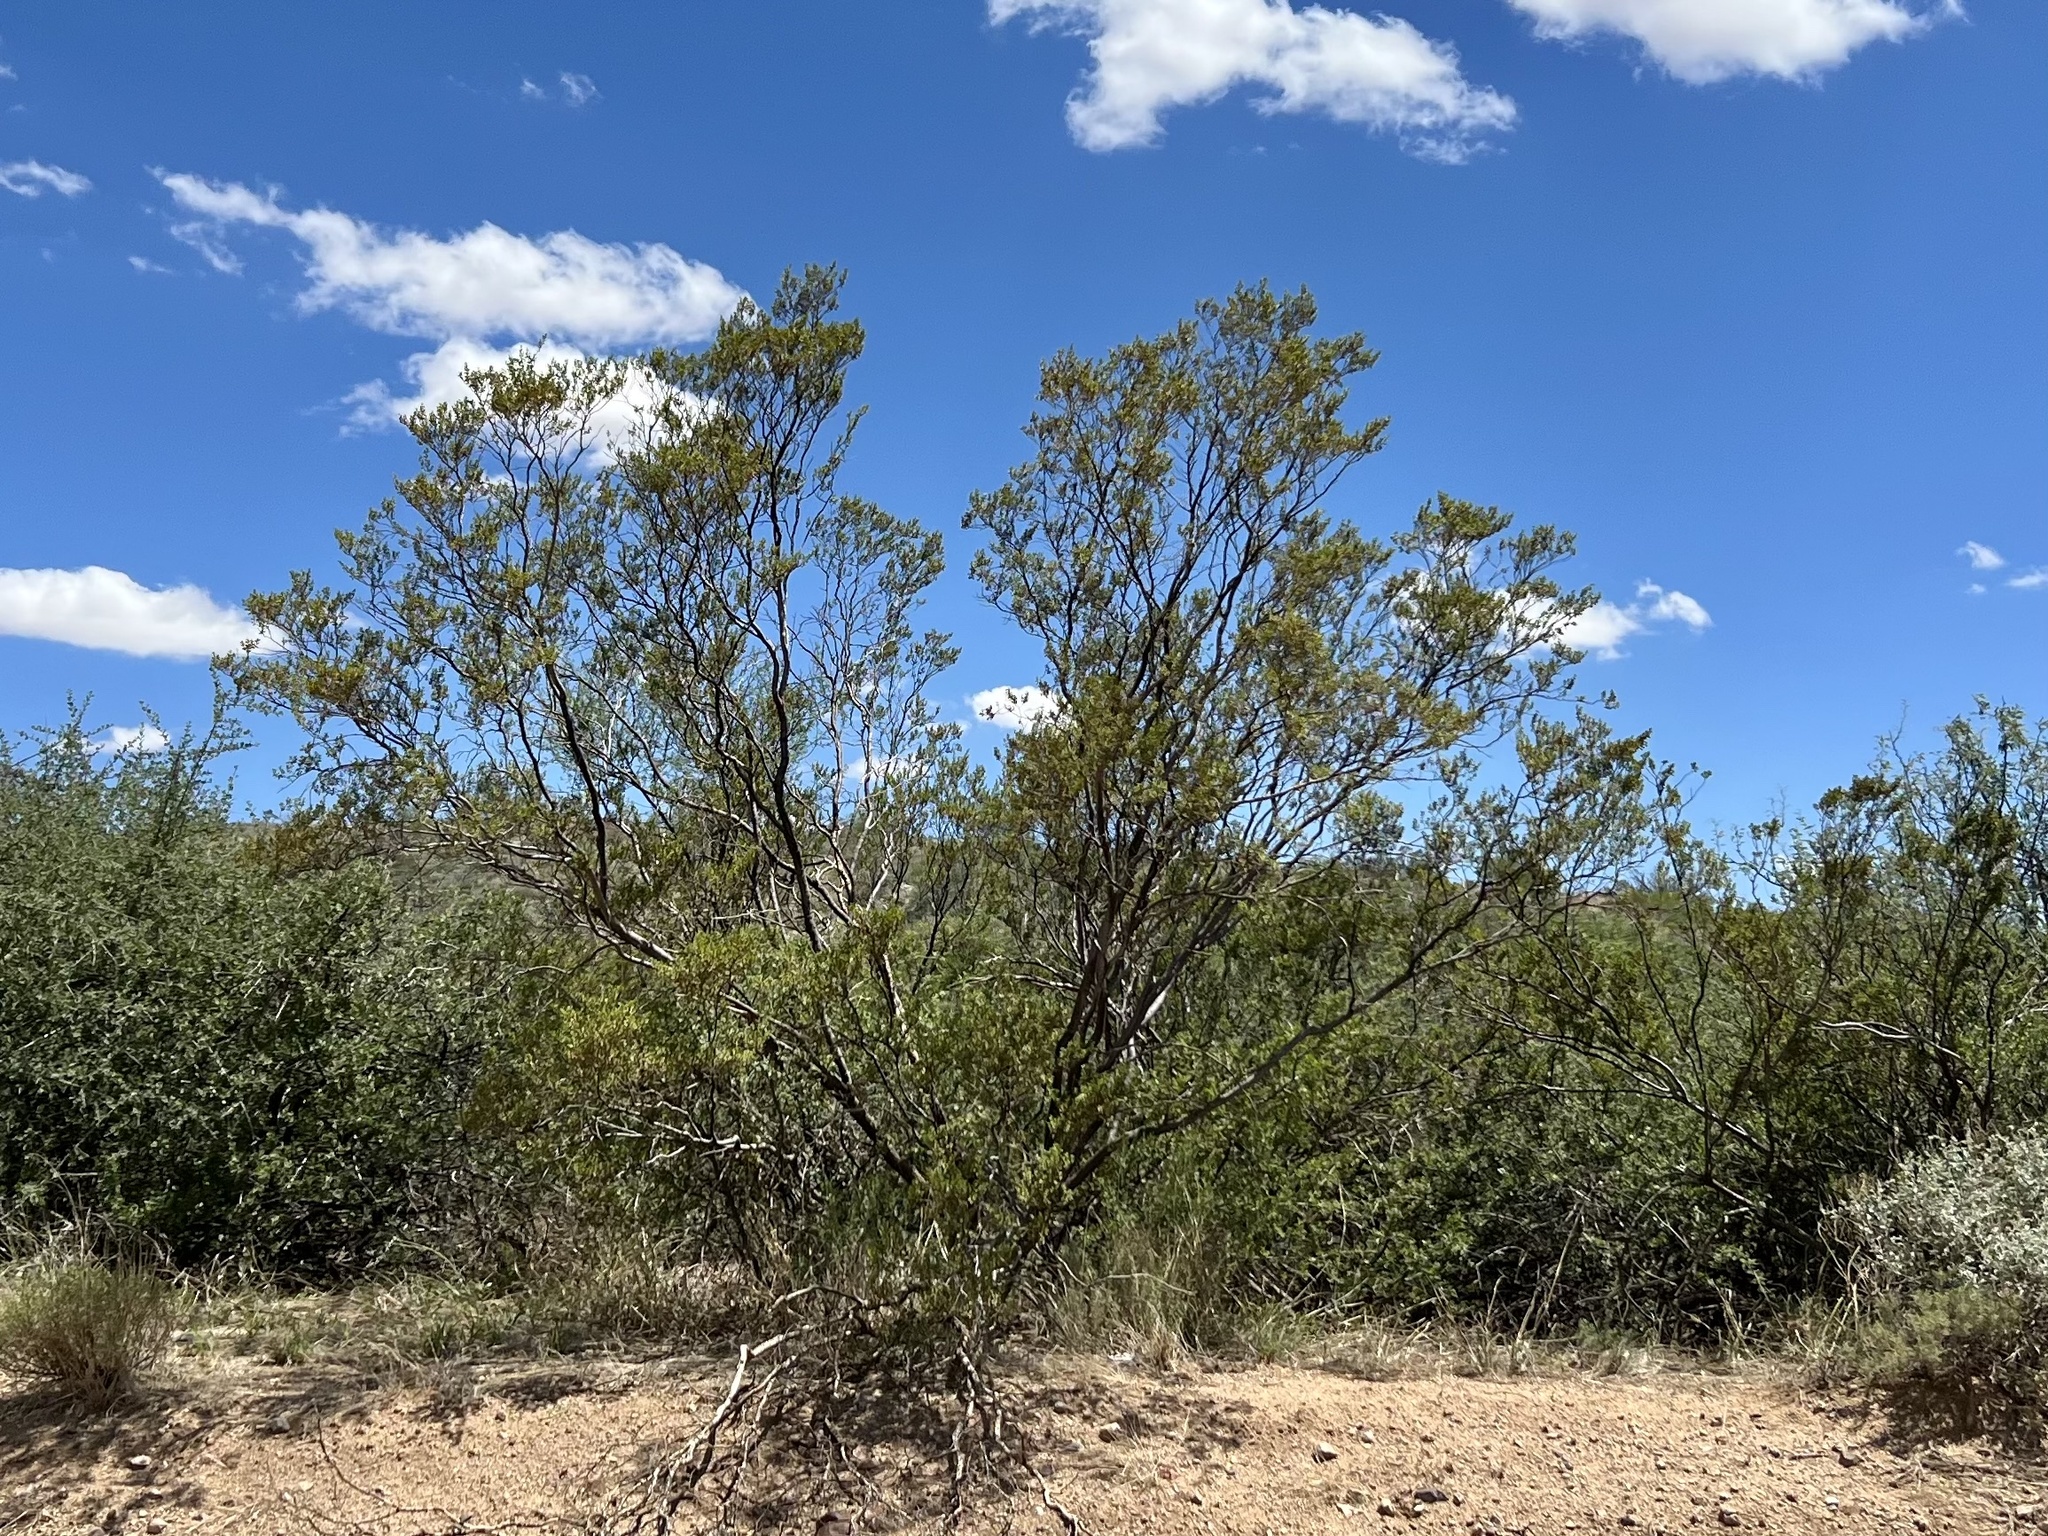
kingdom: Plantae
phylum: Tracheophyta
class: Magnoliopsida
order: Zygophyllales
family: Zygophyllaceae
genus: Larrea
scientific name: Larrea tridentata
